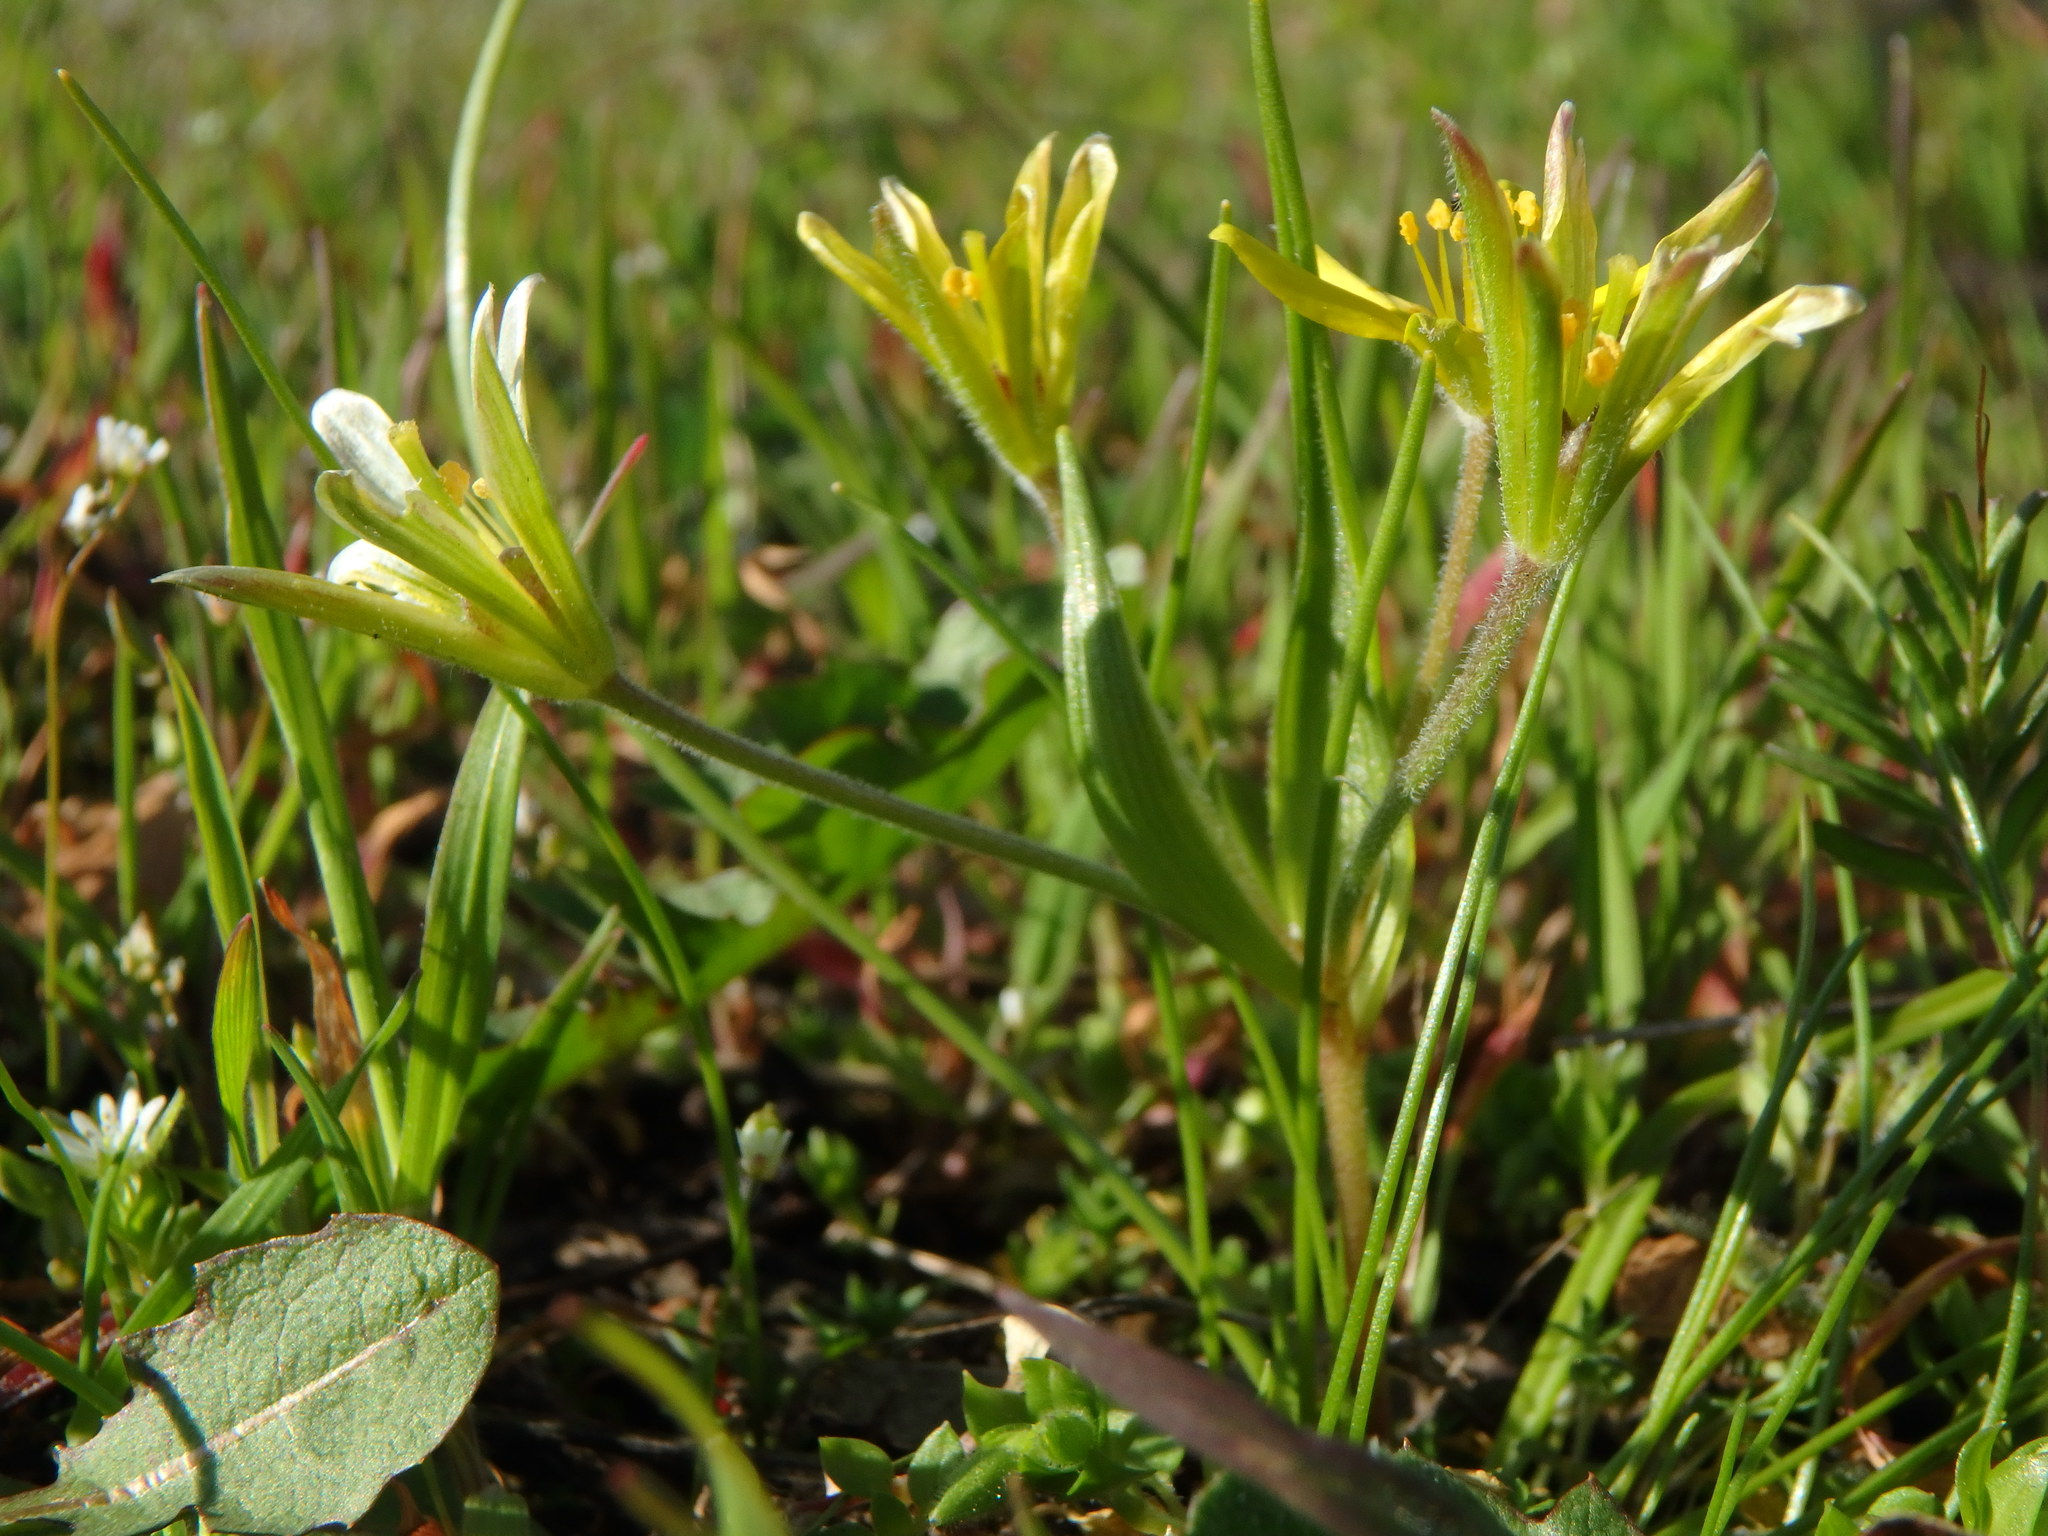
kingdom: Plantae
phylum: Tracheophyta
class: Liliopsida
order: Liliales
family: Liliaceae
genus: Gagea
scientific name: Gagea villosa
